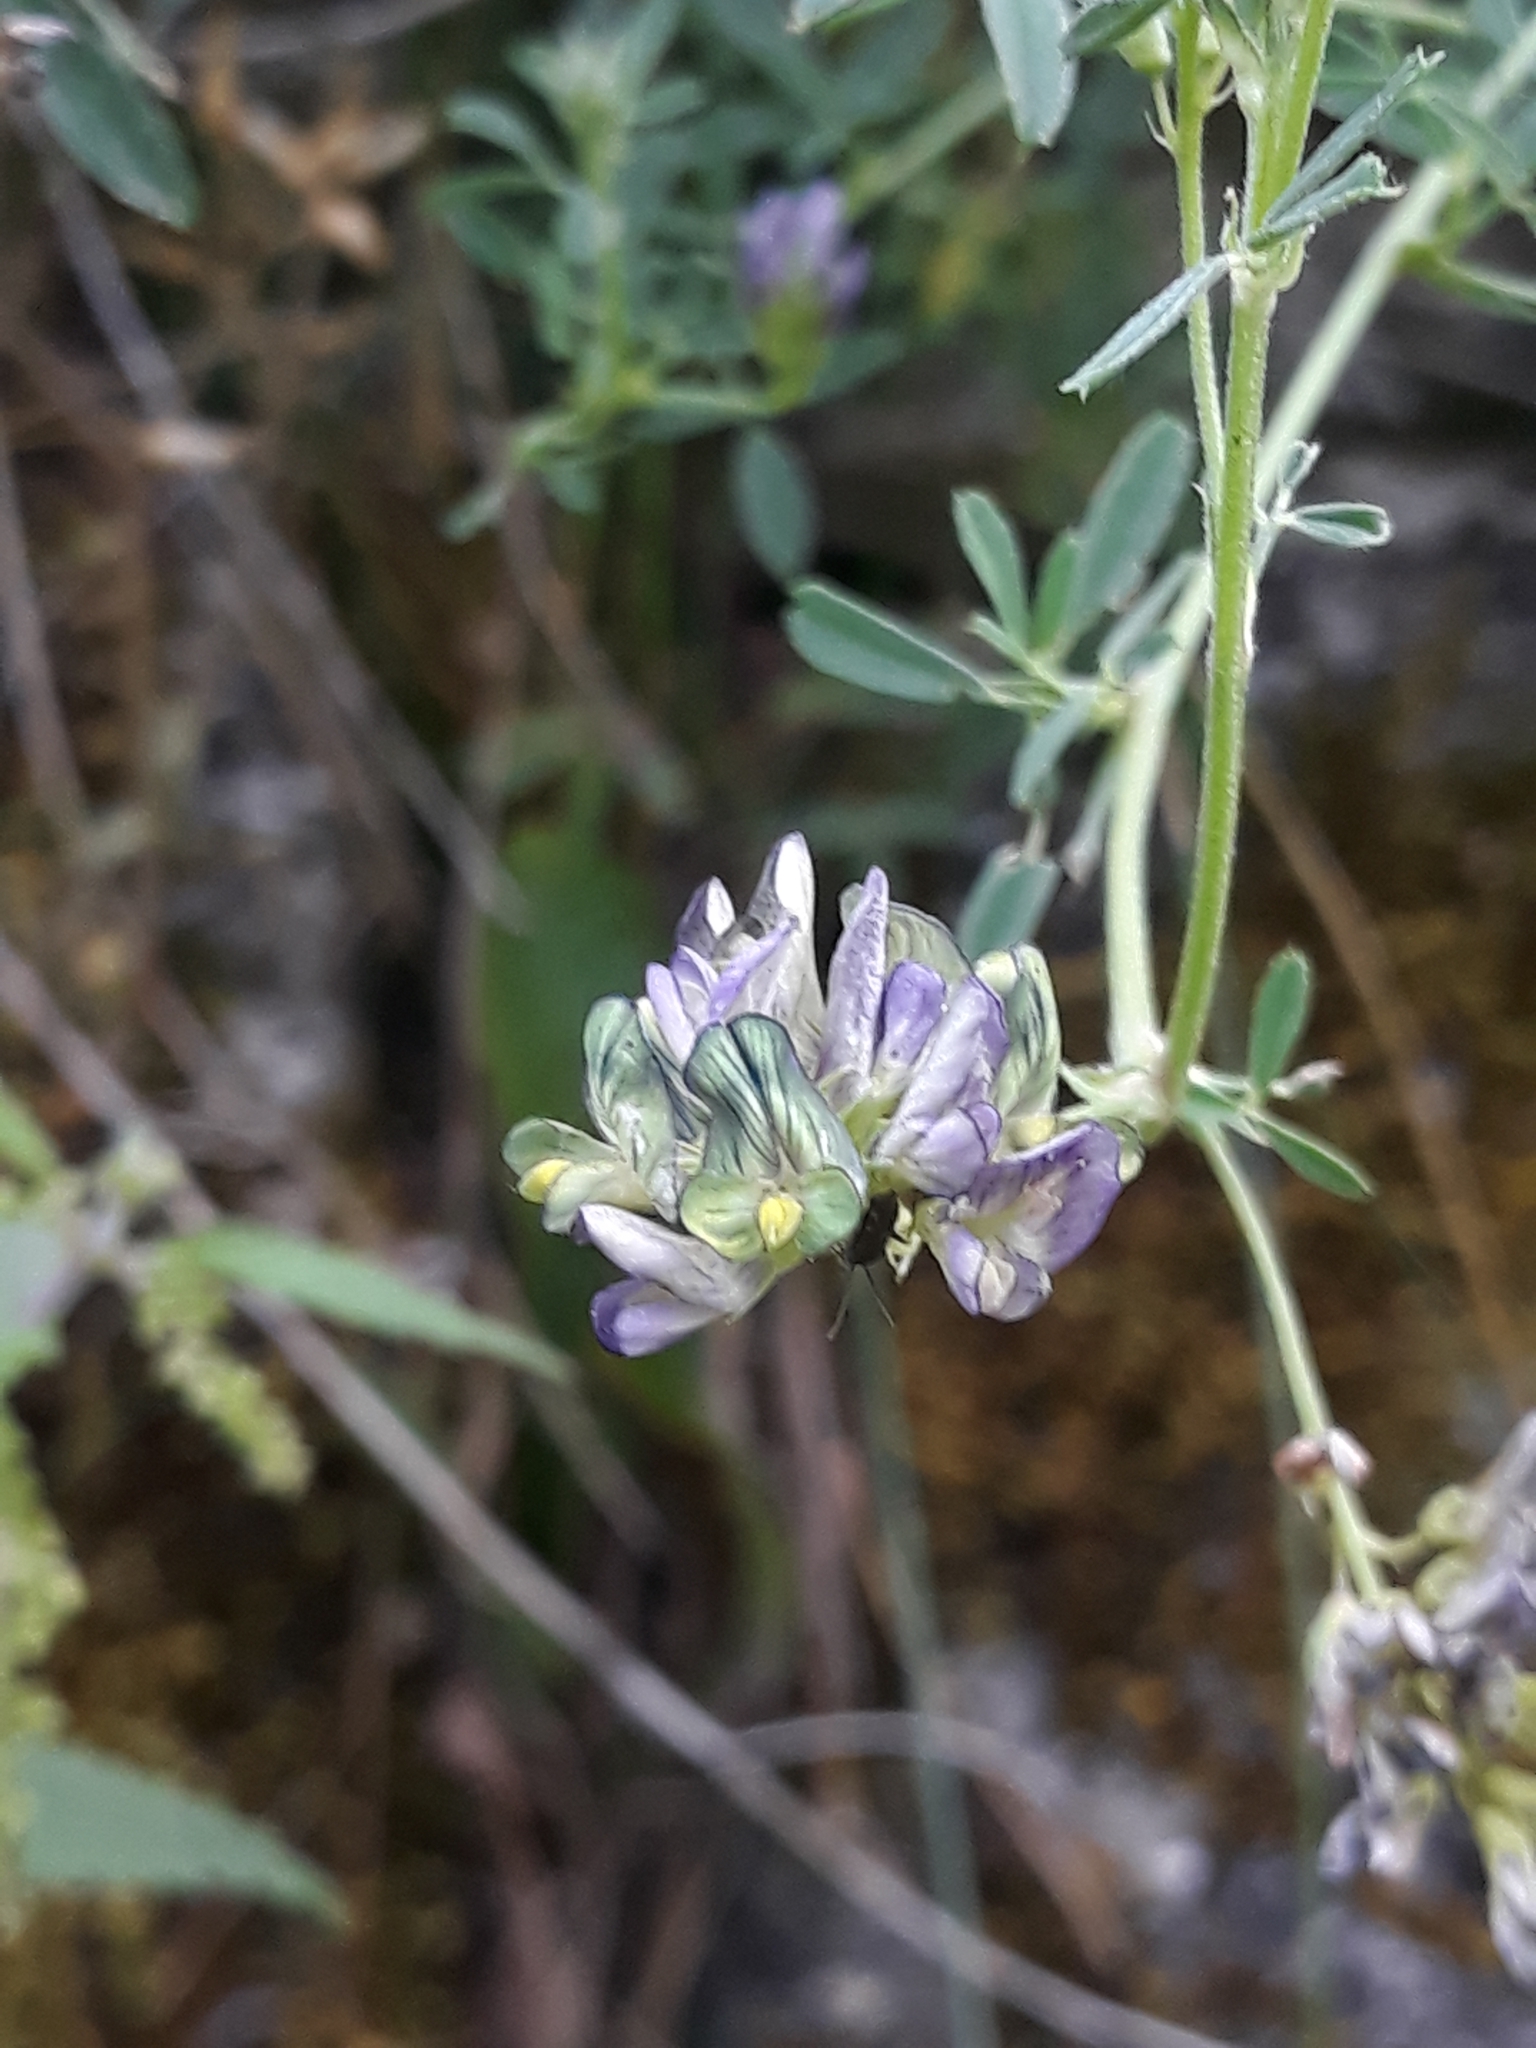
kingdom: Plantae
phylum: Tracheophyta
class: Magnoliopsida
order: Fabales
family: Fabaceae
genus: Medicago
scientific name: Medicago varia
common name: Sand lucerne
